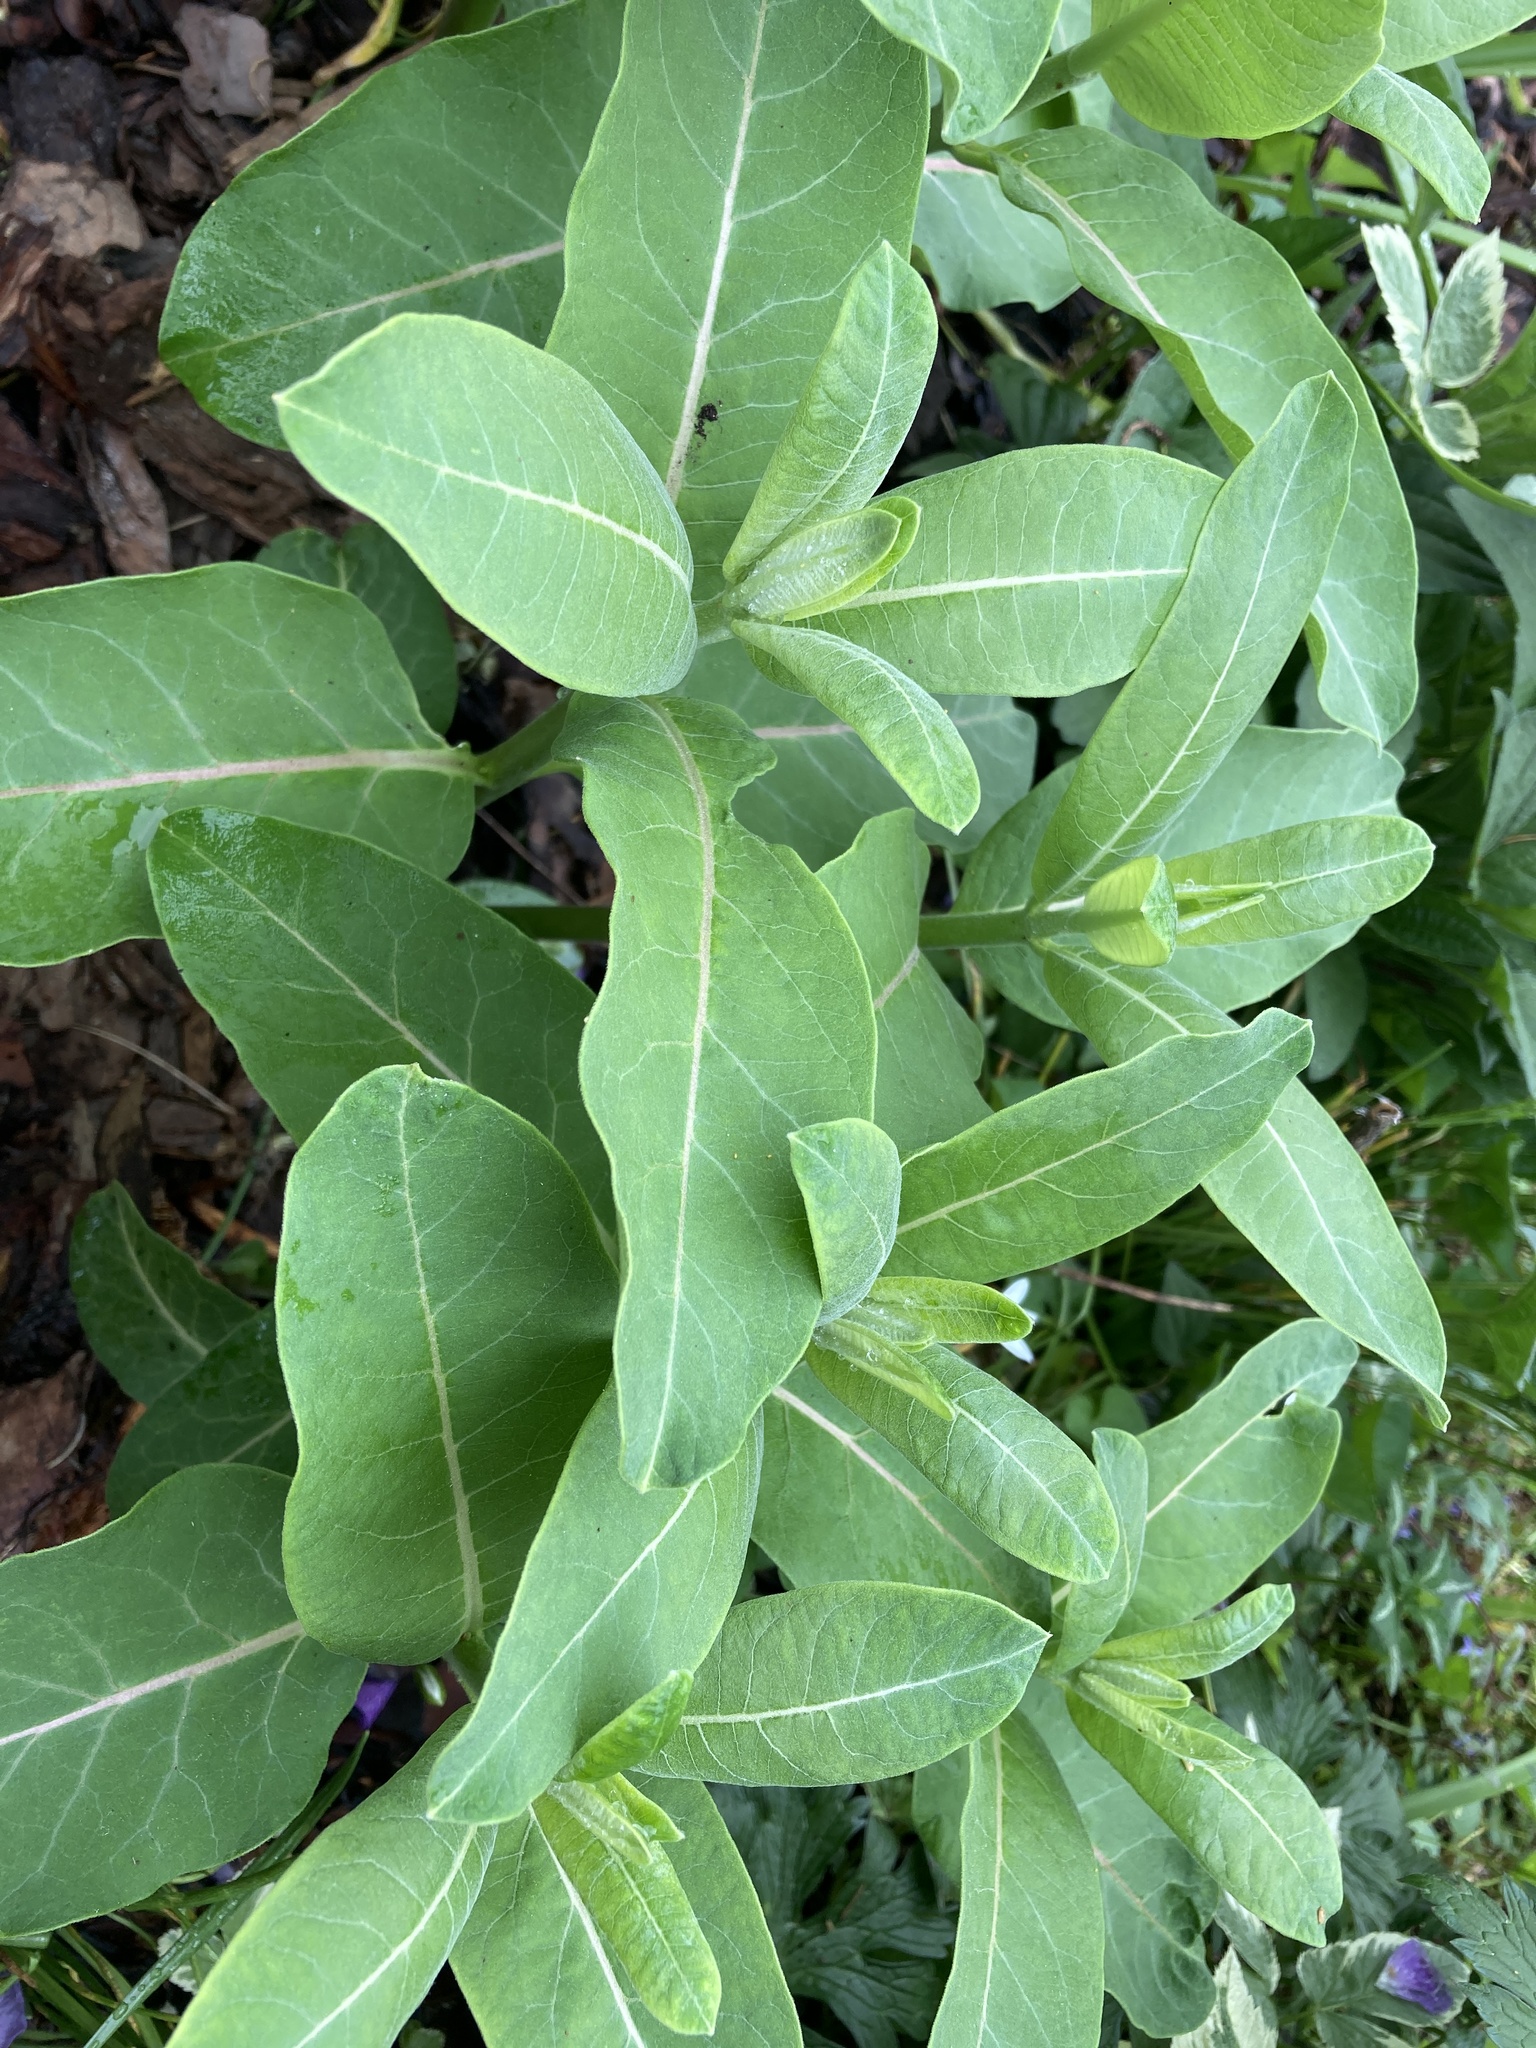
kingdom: Plantae
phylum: Tracheophyta
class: Magnoliopsida
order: Gentianales
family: Apocynaceae
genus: Asclepias
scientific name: Asclepias syriaca
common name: Common milkweed
